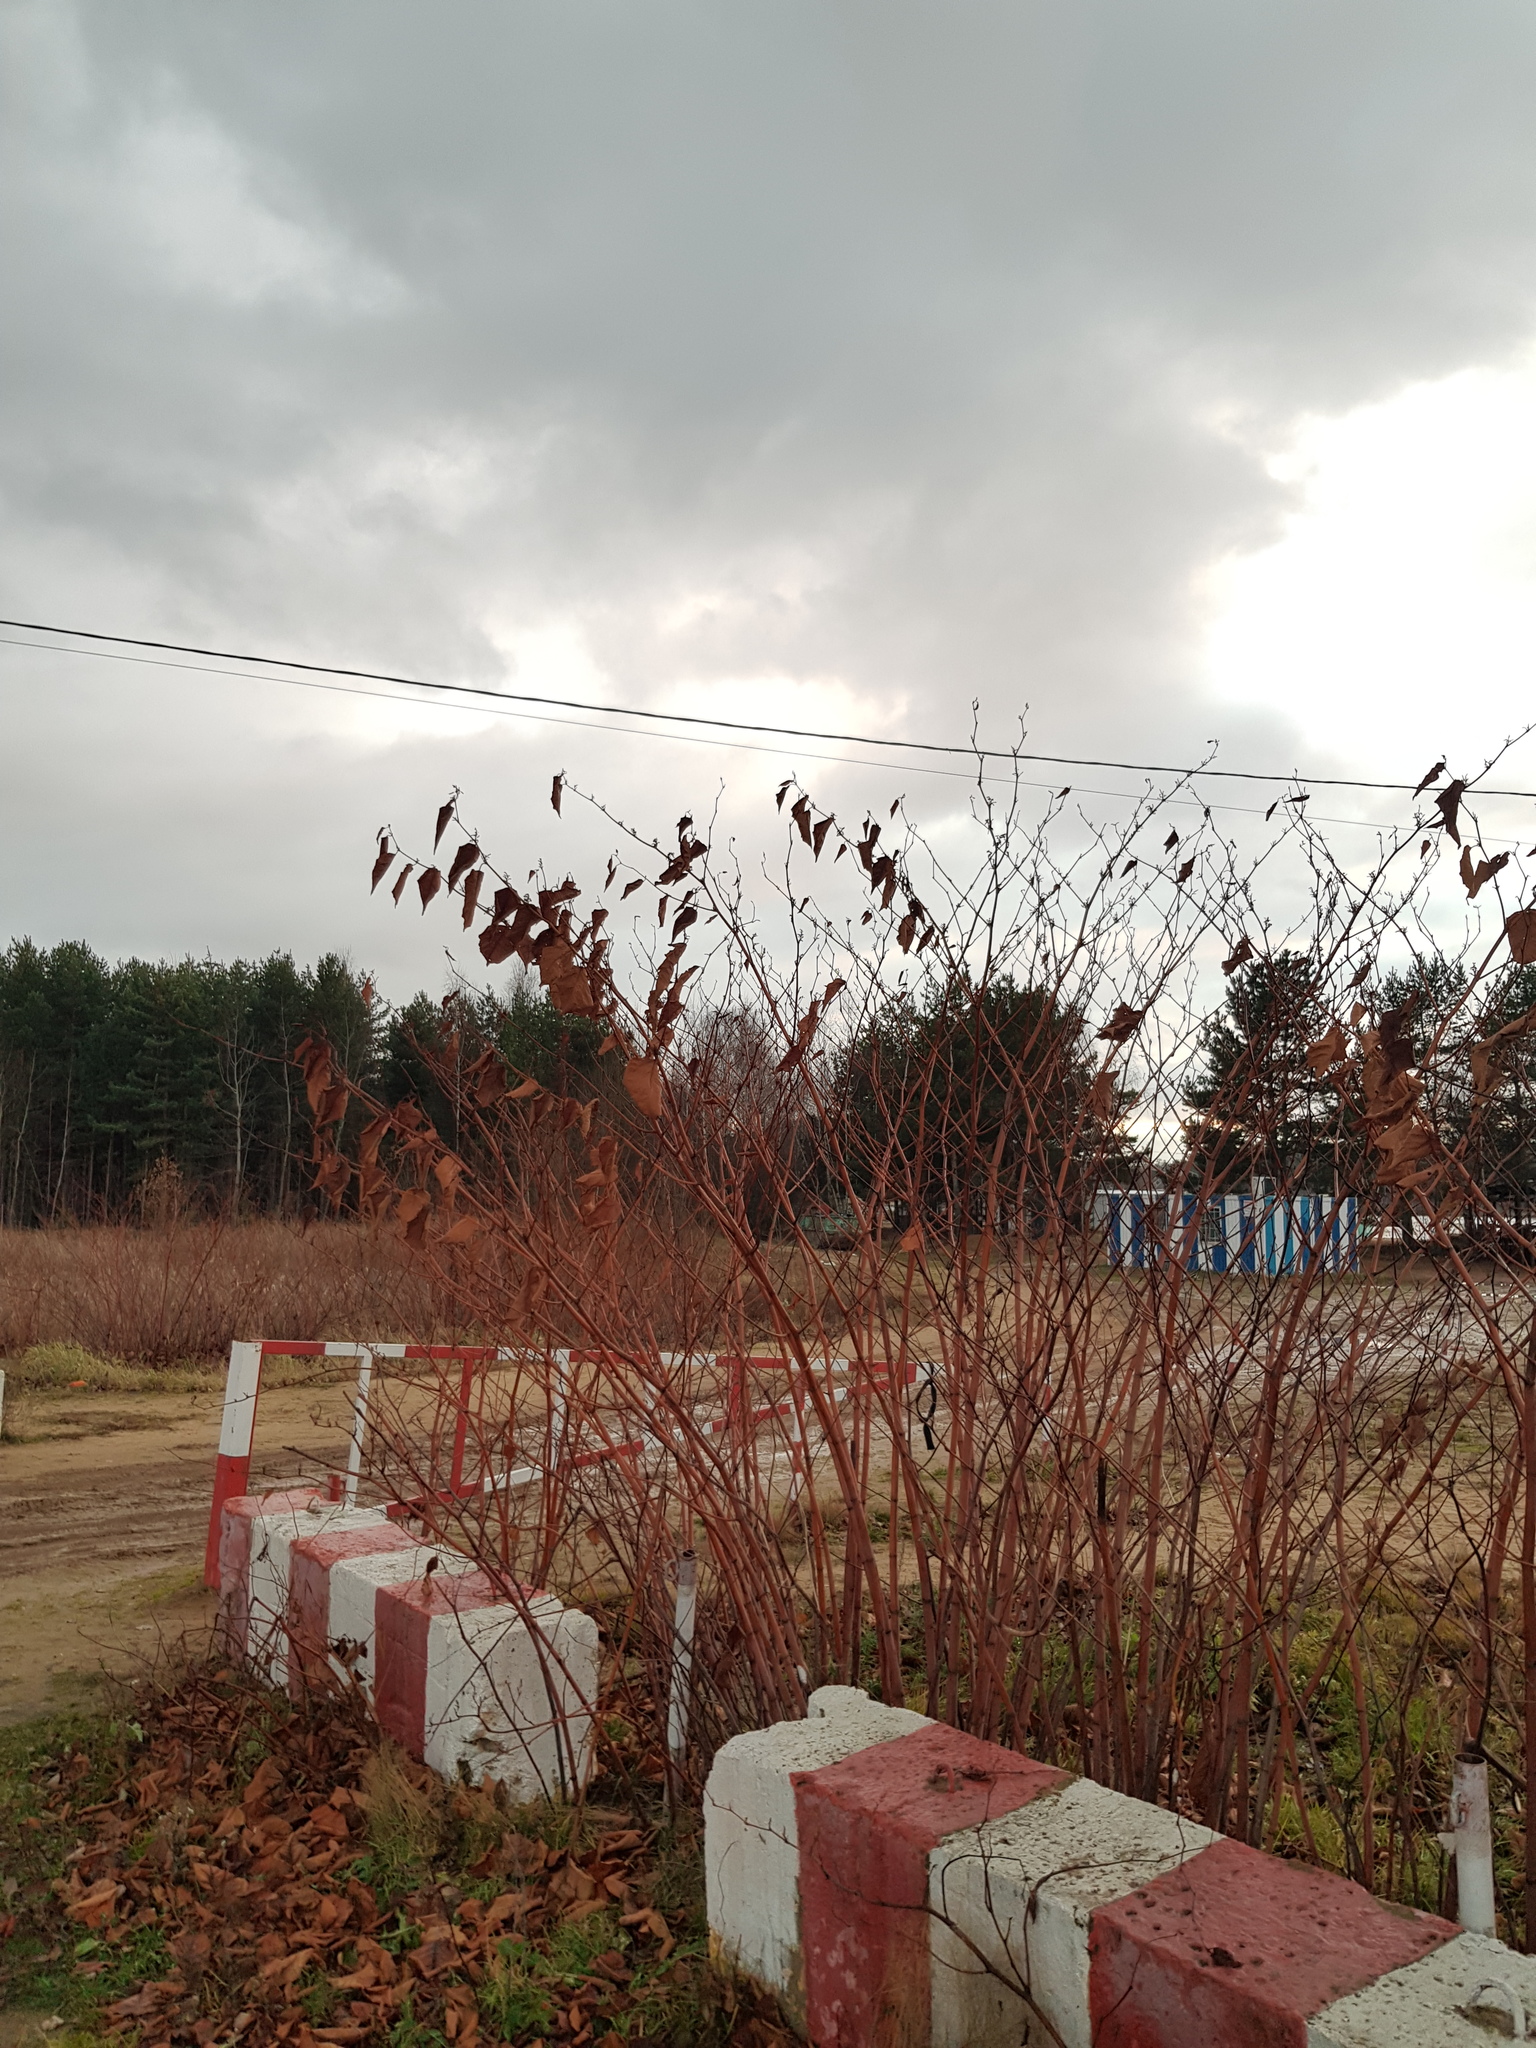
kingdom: Plantae
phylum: Tracheophyta
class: Magnoliopsida
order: Caryophyllales
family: Polygonaceae
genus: Reynoutria
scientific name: Reynoutria bohemica
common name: Bohemian knotweed
